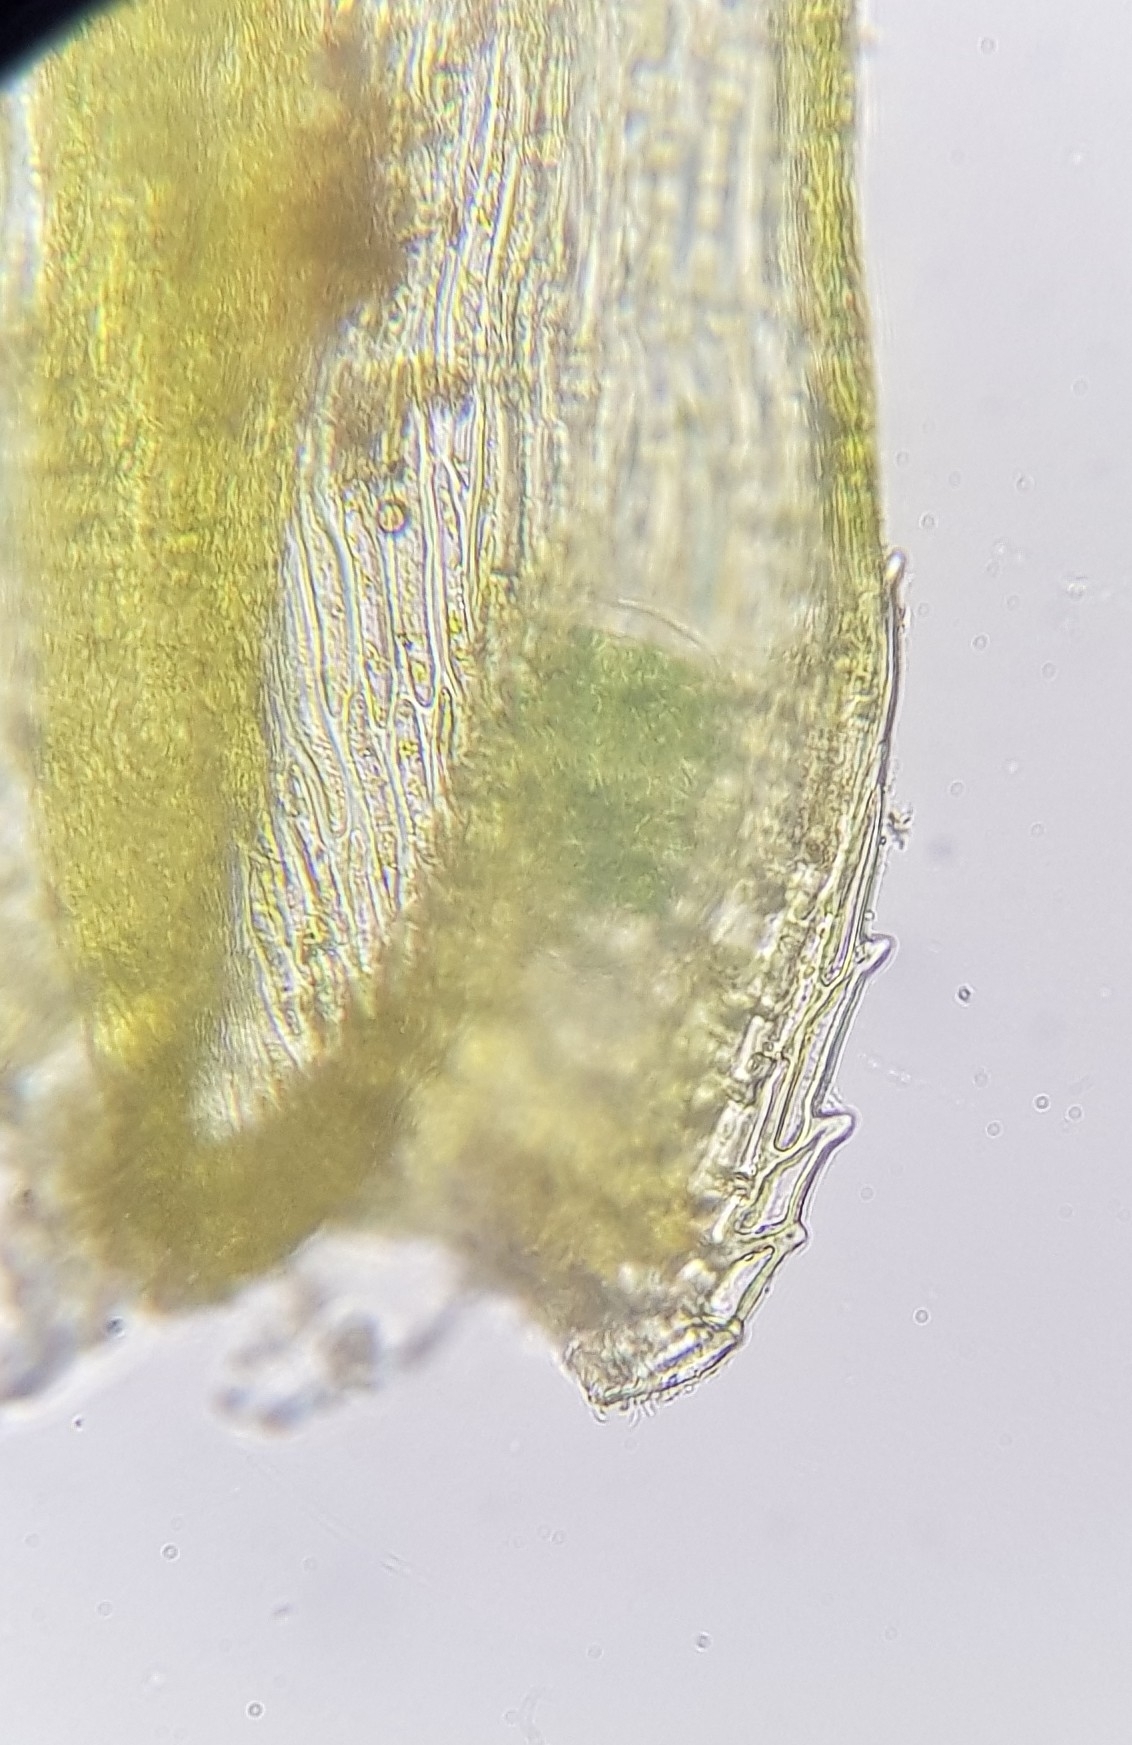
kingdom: Plantae
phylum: Bryophyta
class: Bryopsida
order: Hypnales
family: Brachytheciaceae
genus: Homalothecium
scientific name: Homalothecium sericeum
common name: Silky wall feather-moss
